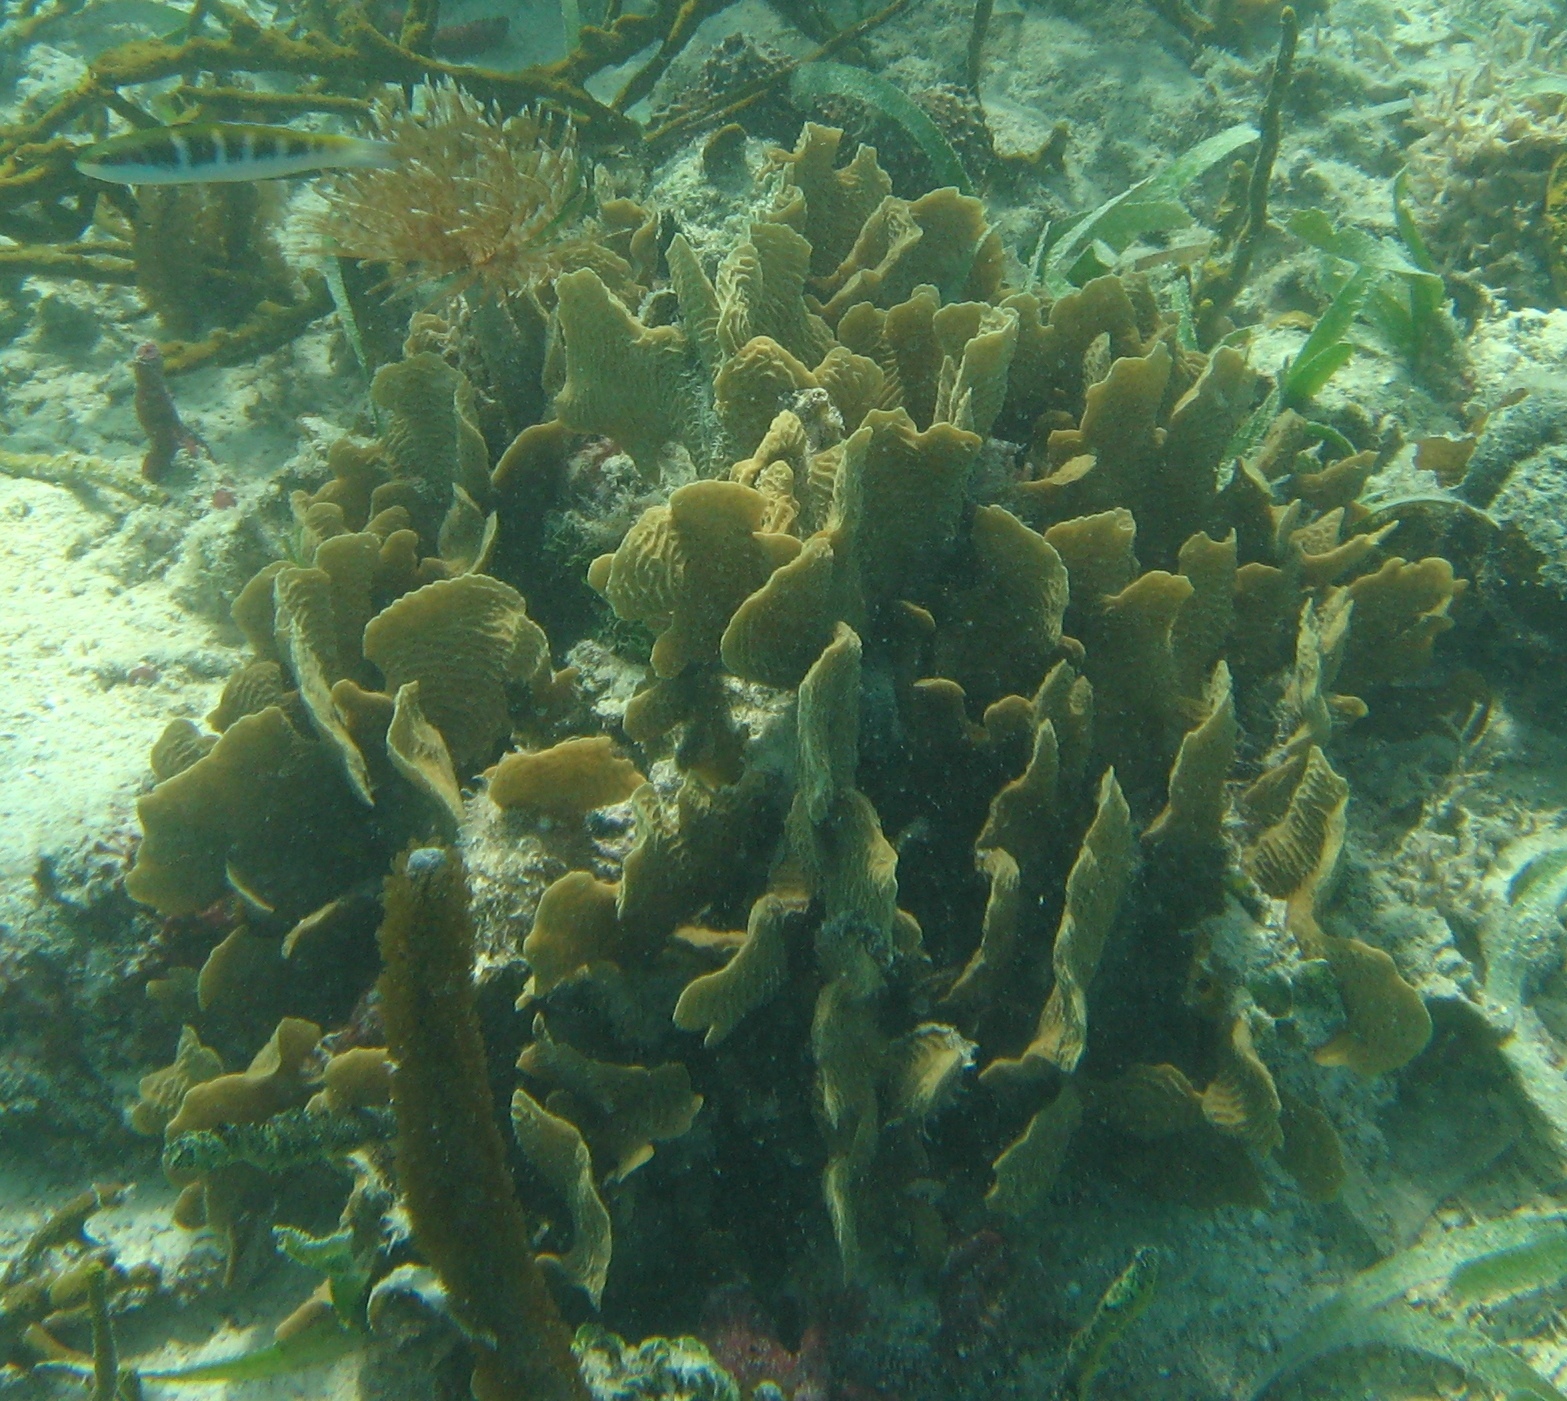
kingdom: Animalia
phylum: Cnidaria
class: Anthozoa
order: Scleractinia
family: Agariciidae
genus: Agaricia
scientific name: Agaricia tenuifolia
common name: Thin leaf lettuce coral
